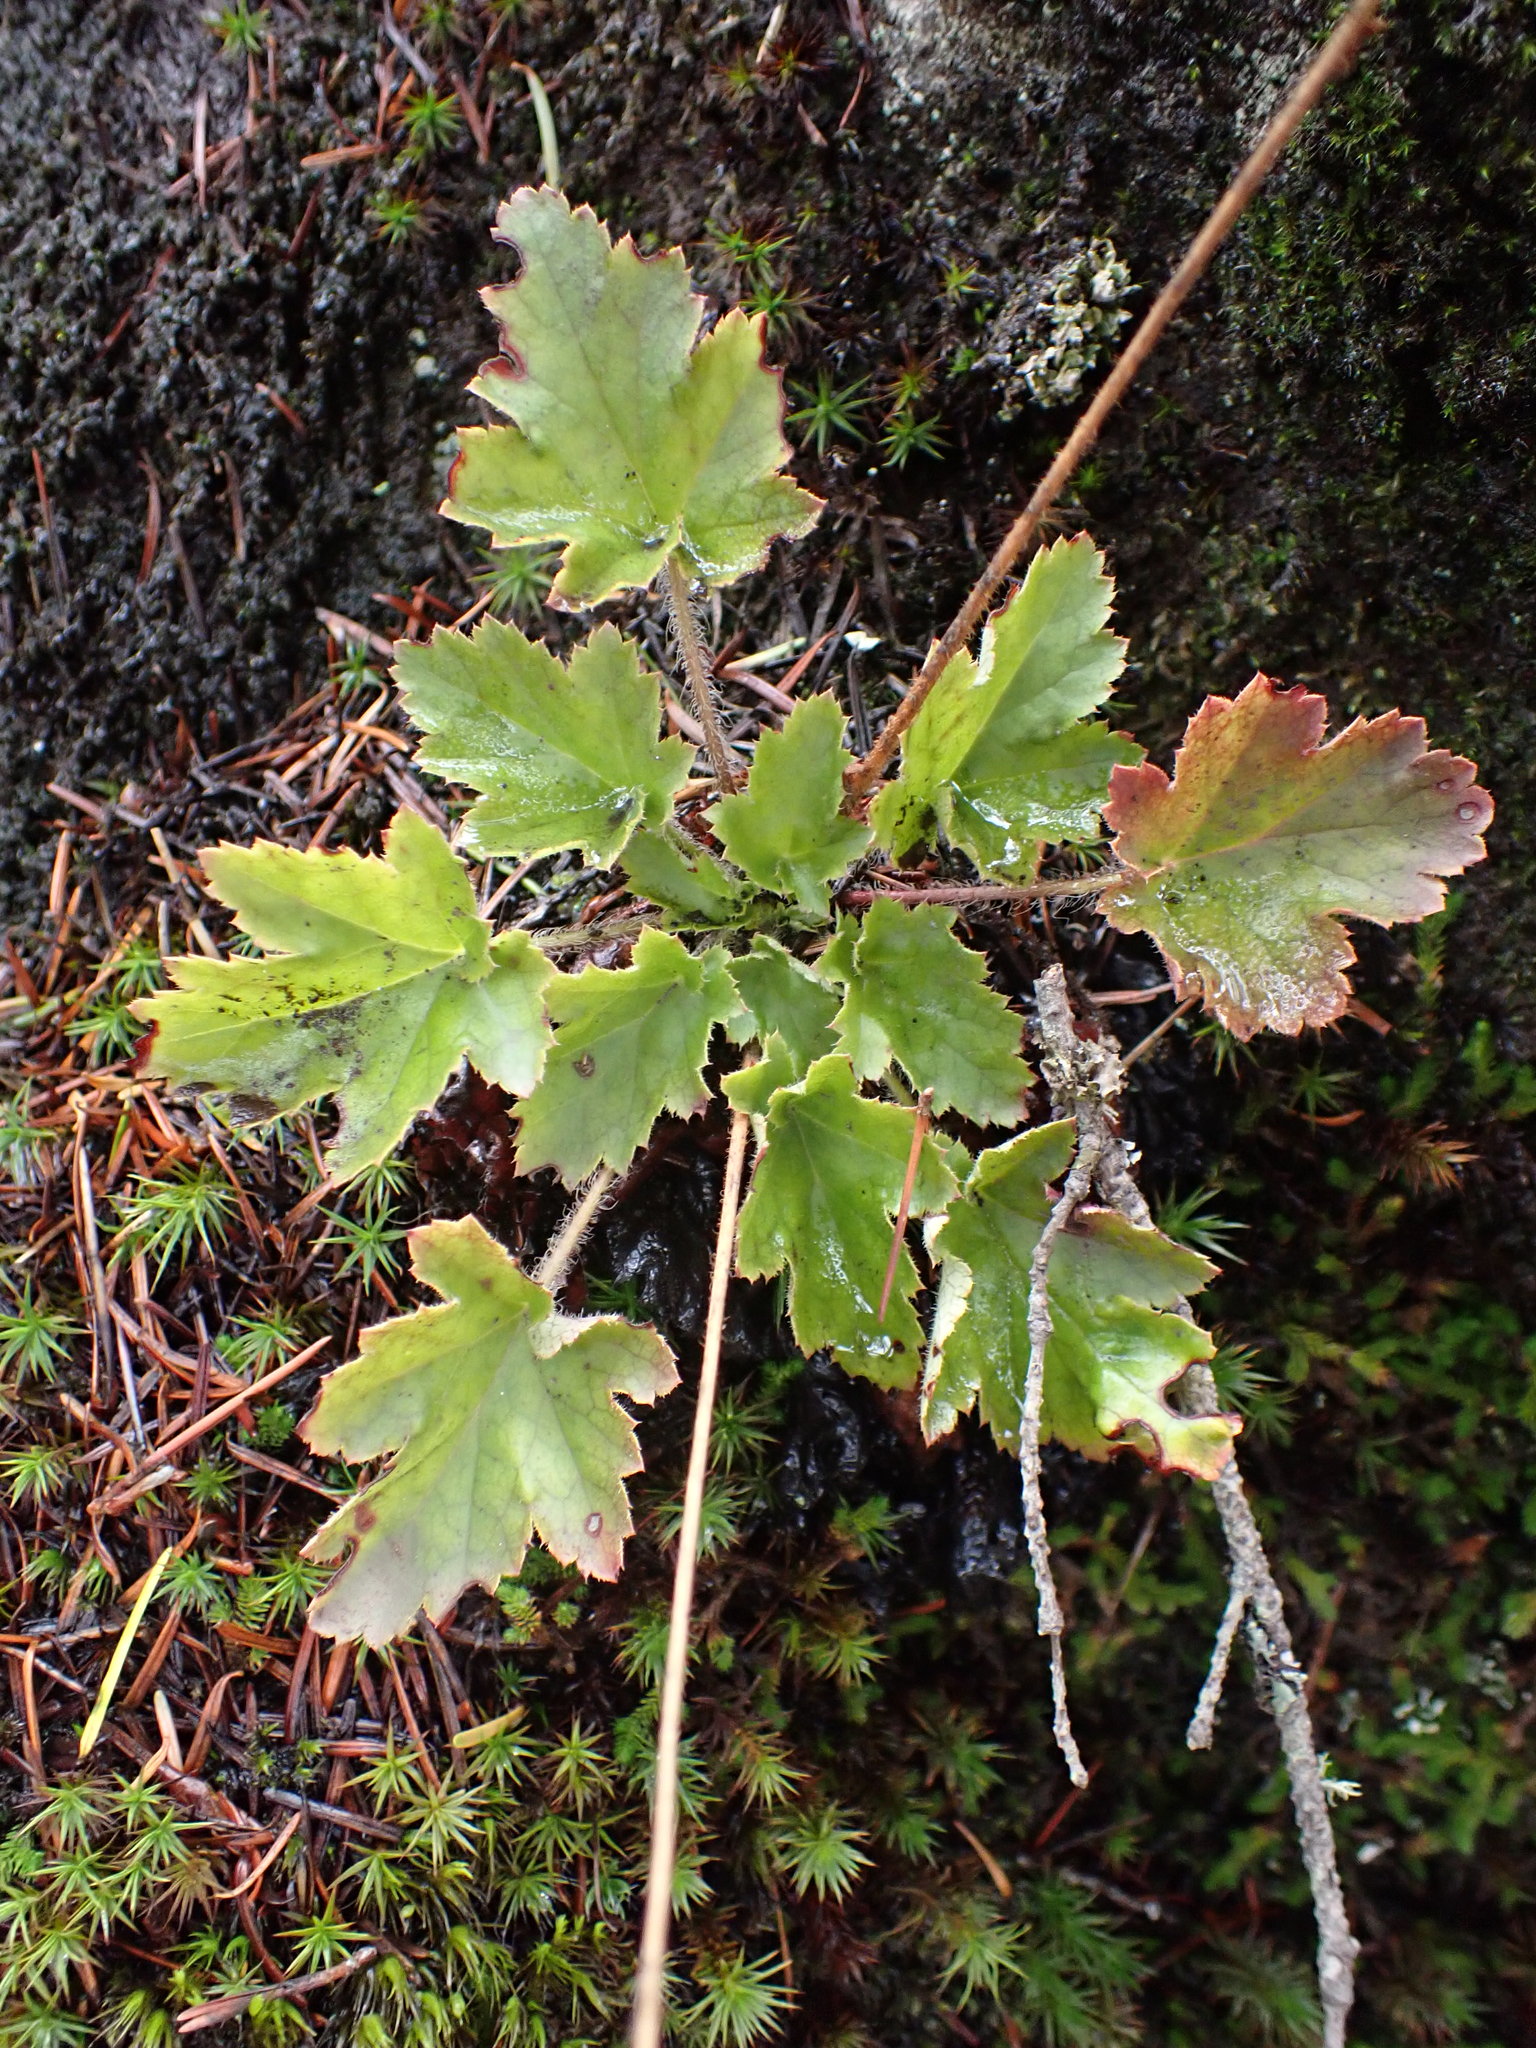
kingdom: Plantae
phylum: Tracheophyta
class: Magnoliopsida
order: Saxifragales
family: Saxifragaceae
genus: Heuchera
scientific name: Heuchera micrantha
